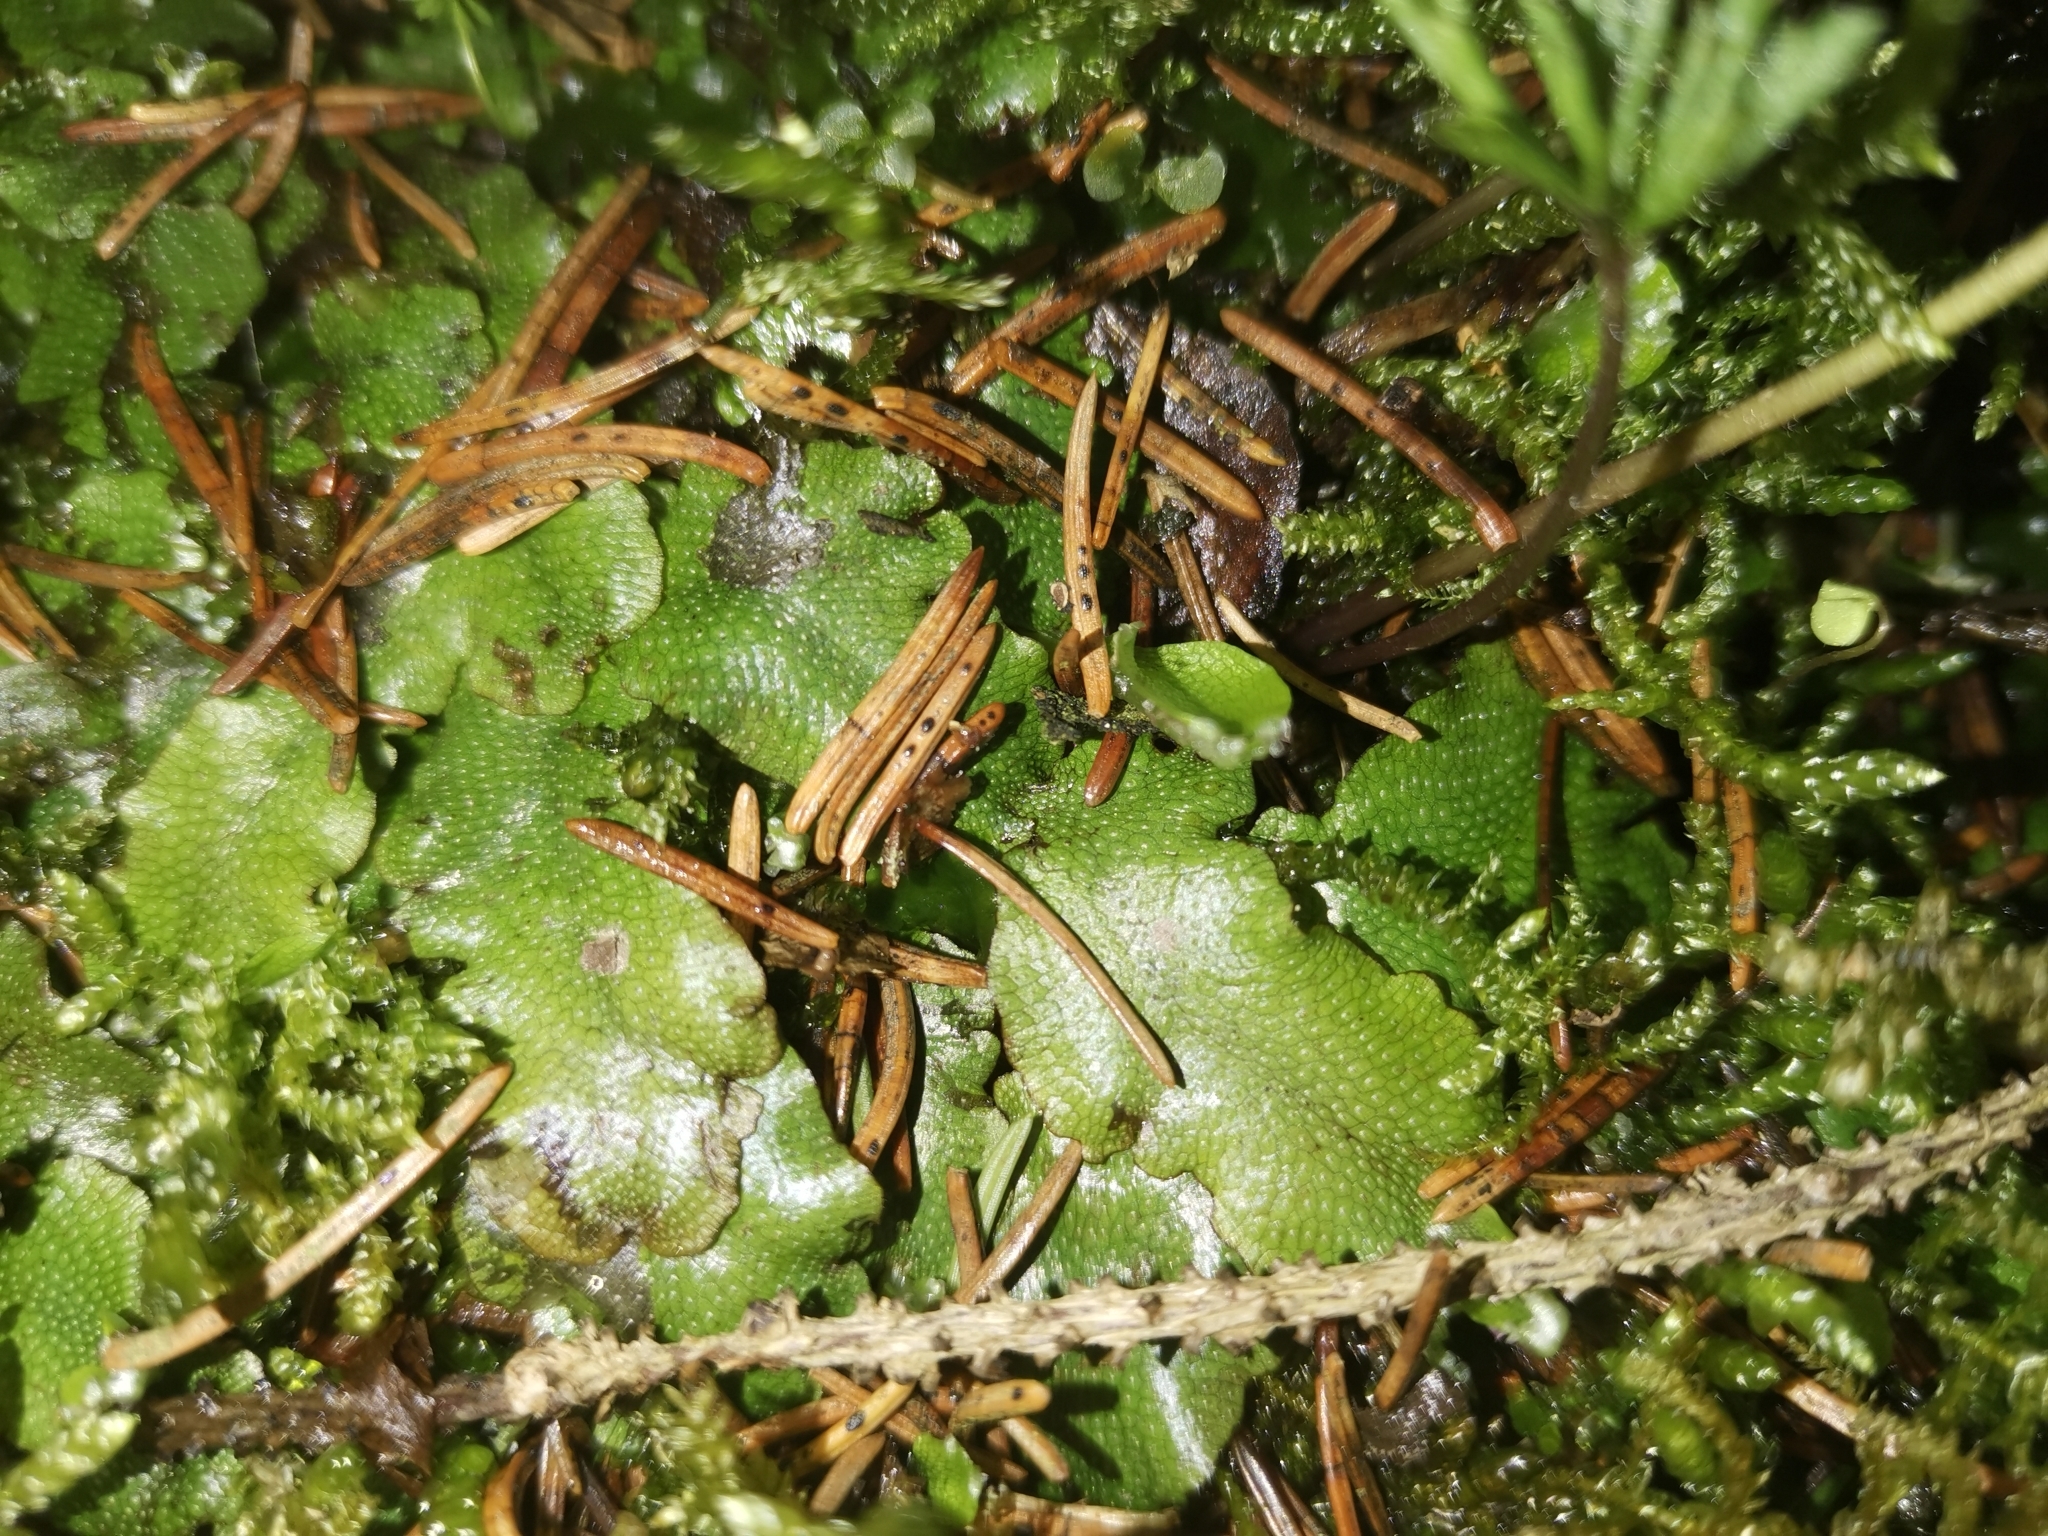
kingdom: Plantae
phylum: Marchantiophyta
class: Marchantiopsida
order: Marchantiales
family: Conocephalaceae
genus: Conocephalum
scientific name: Conocephalum conicum
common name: Great scented liverwort
